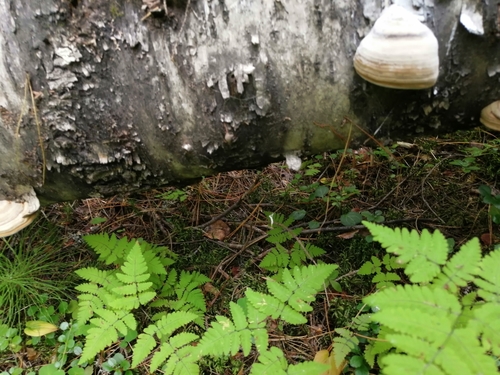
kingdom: Fungi
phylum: Basidiomycota
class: Agaricomycetes
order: Polyporales
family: Polyporaceae
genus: Fomes
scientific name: Fomes fomentarius
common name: Hoof fungus
